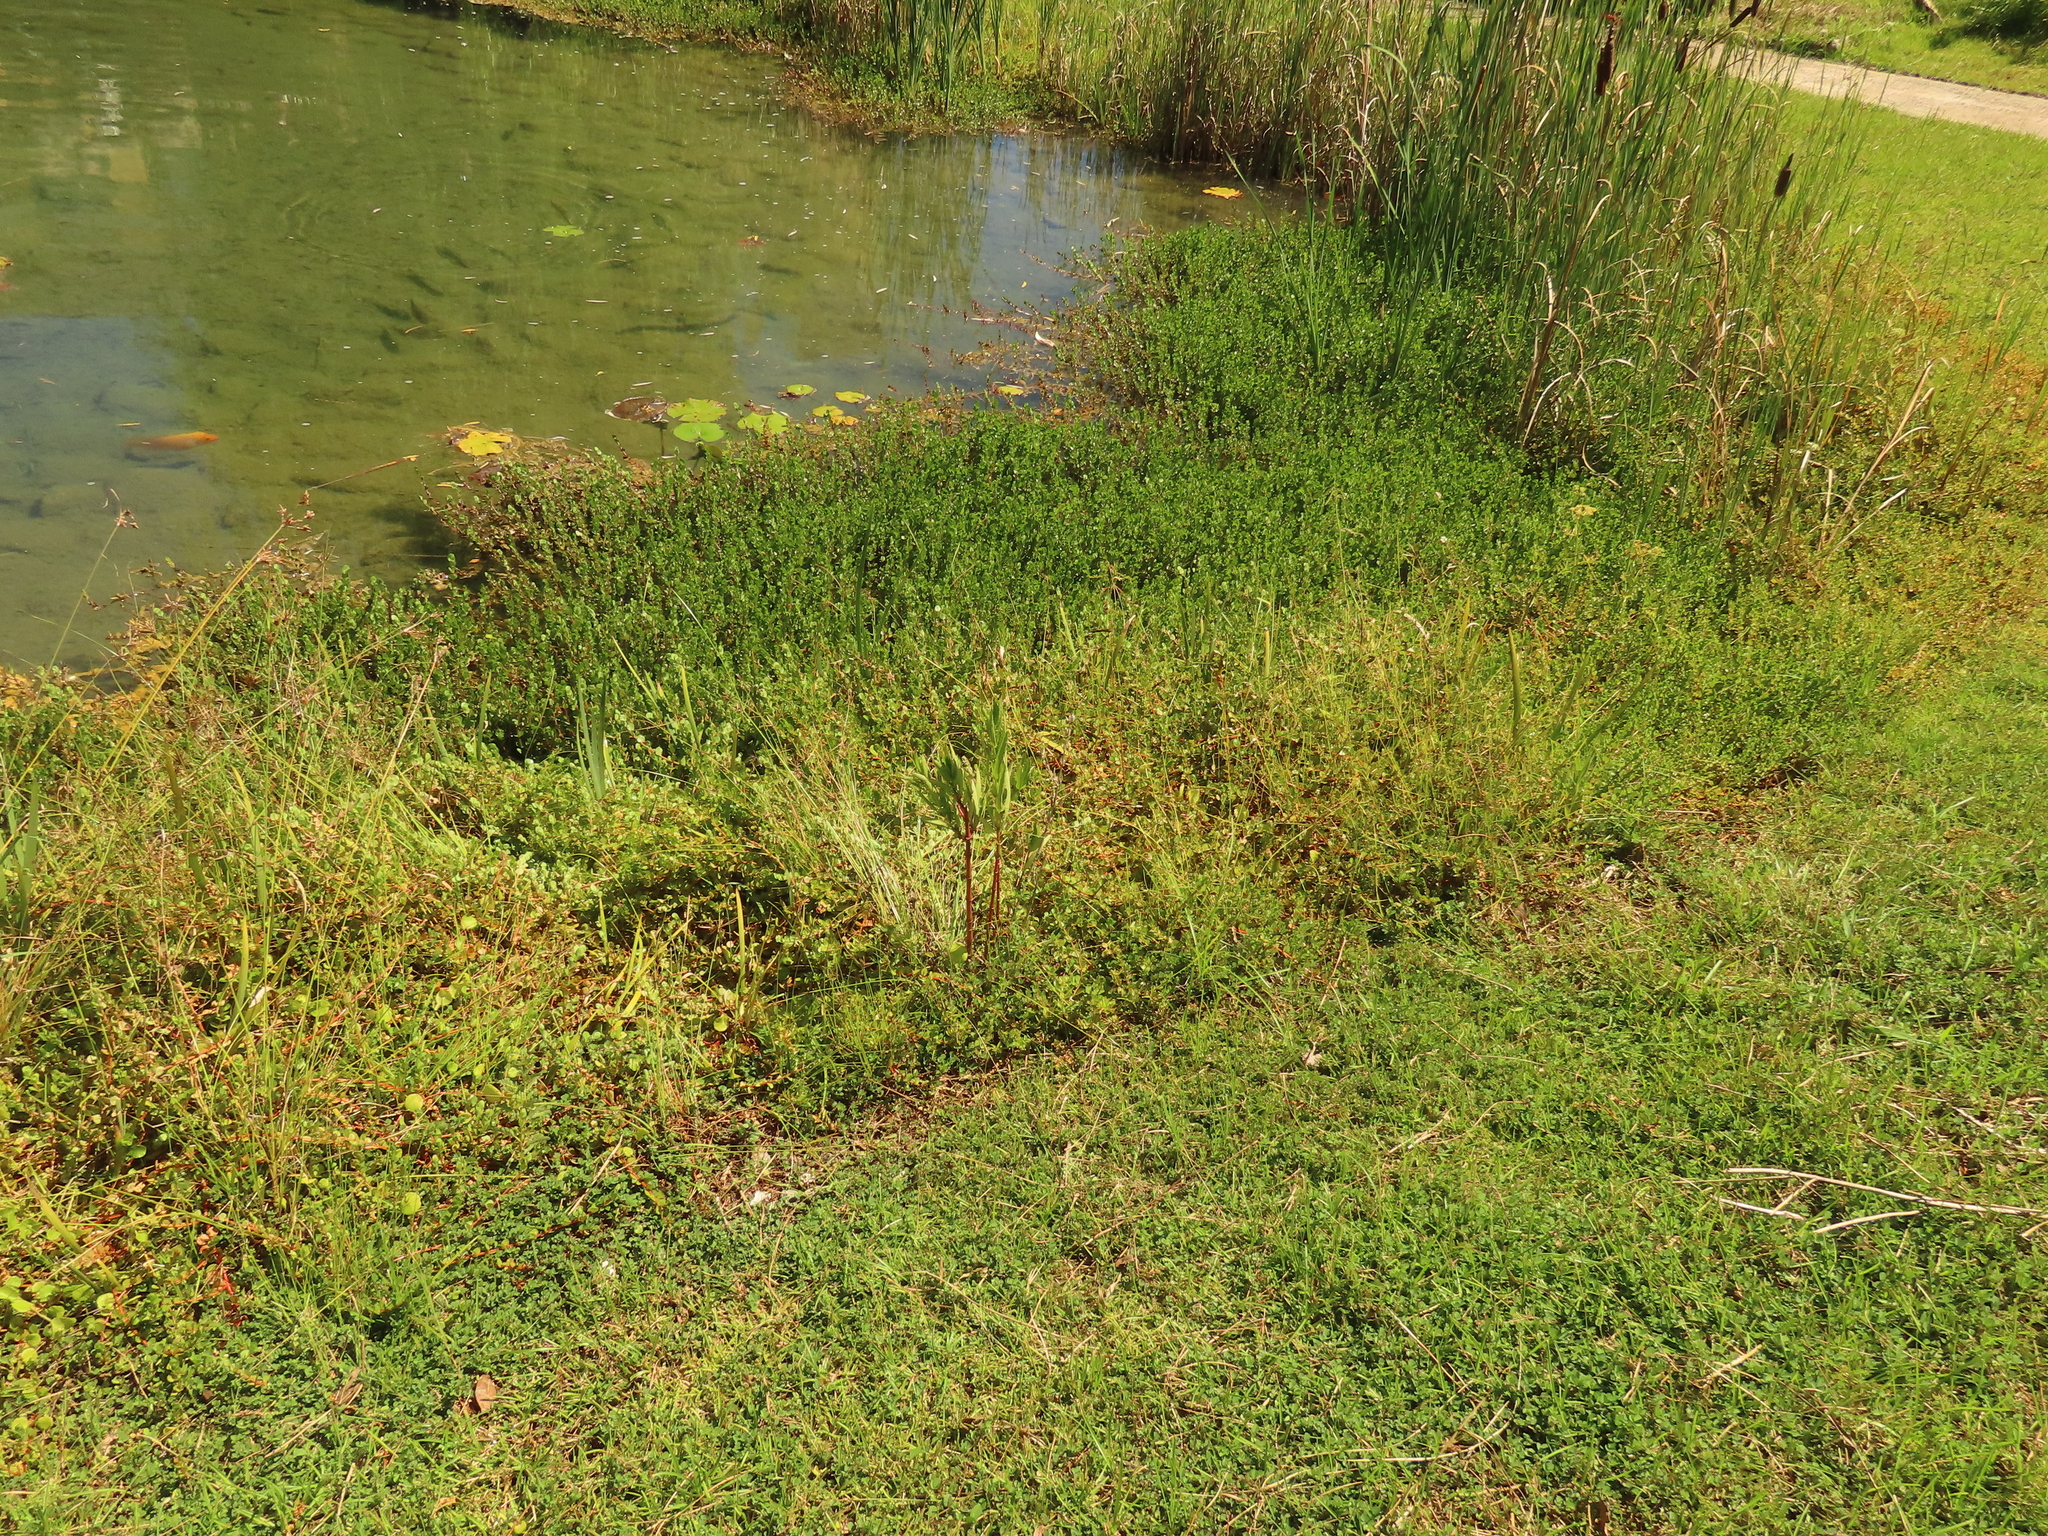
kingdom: Plantae
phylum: Tracheophyta
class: Magnoliopsida
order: Apiales
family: Apiaceae
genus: Oenanthe
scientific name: Oenanthe javanica
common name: Java water-dropwort
